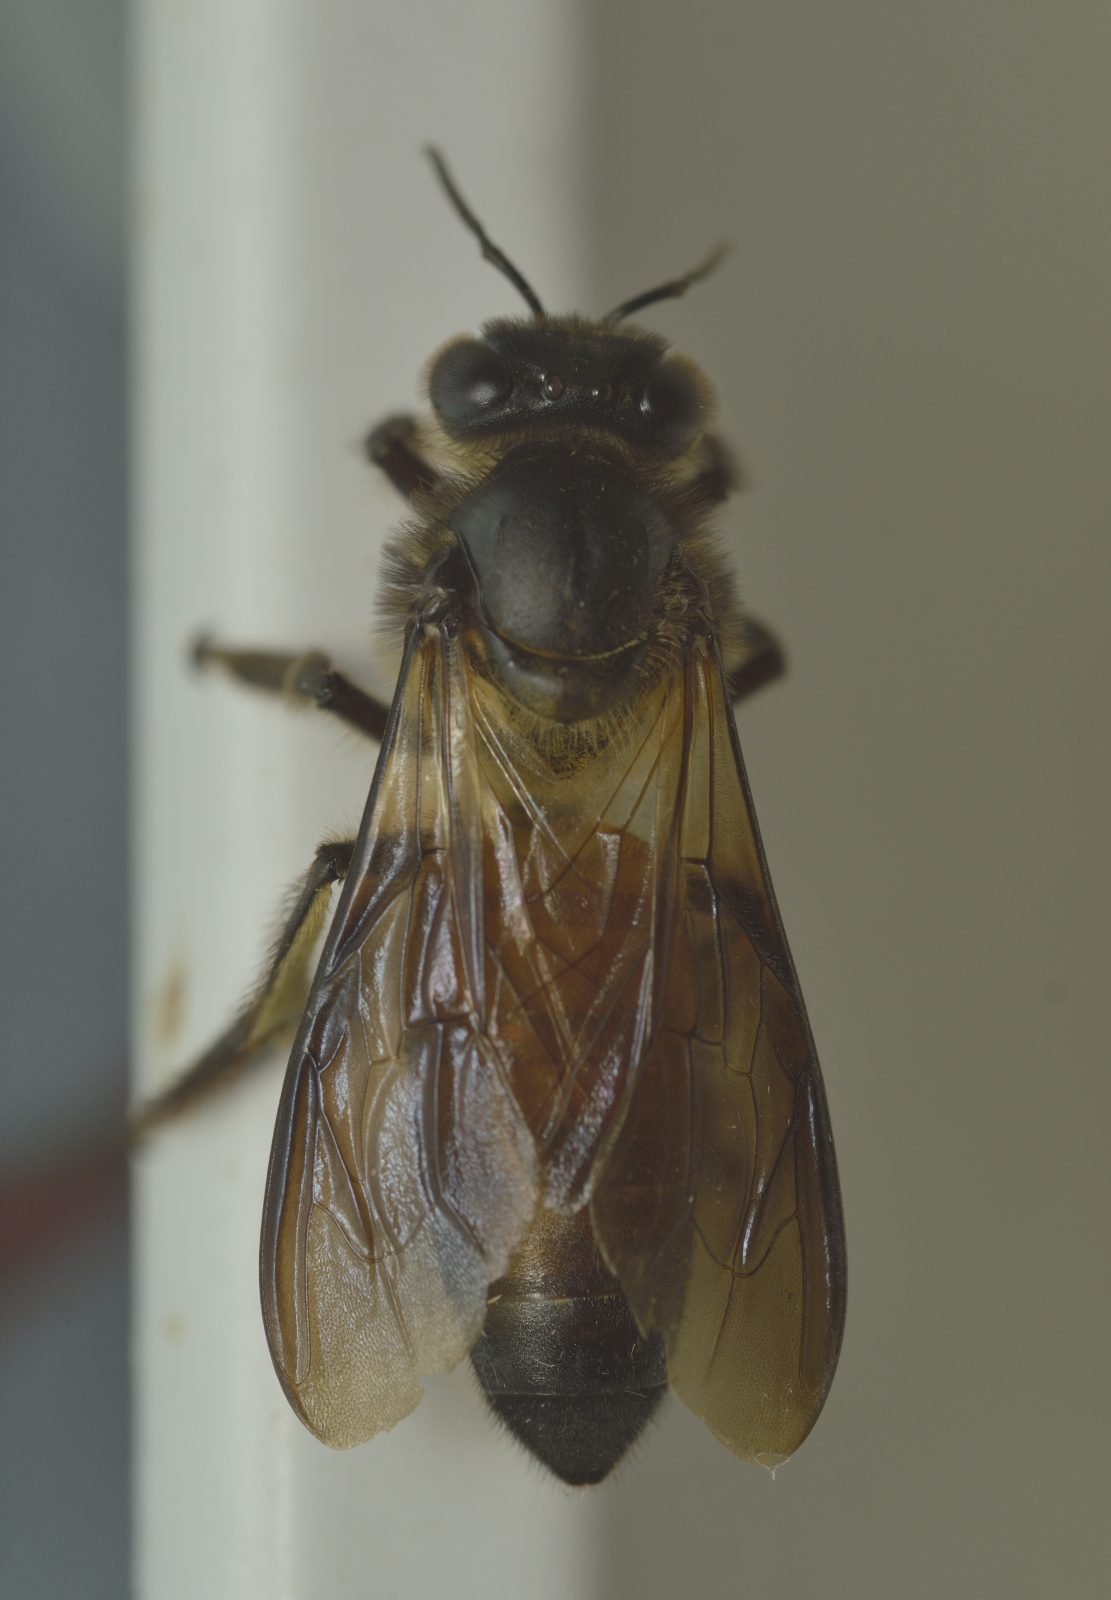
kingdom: Animalia
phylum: Arthropoda
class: Insecta
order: Hymenoptera
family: Apidae
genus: Apis
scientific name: Apis dorsata
